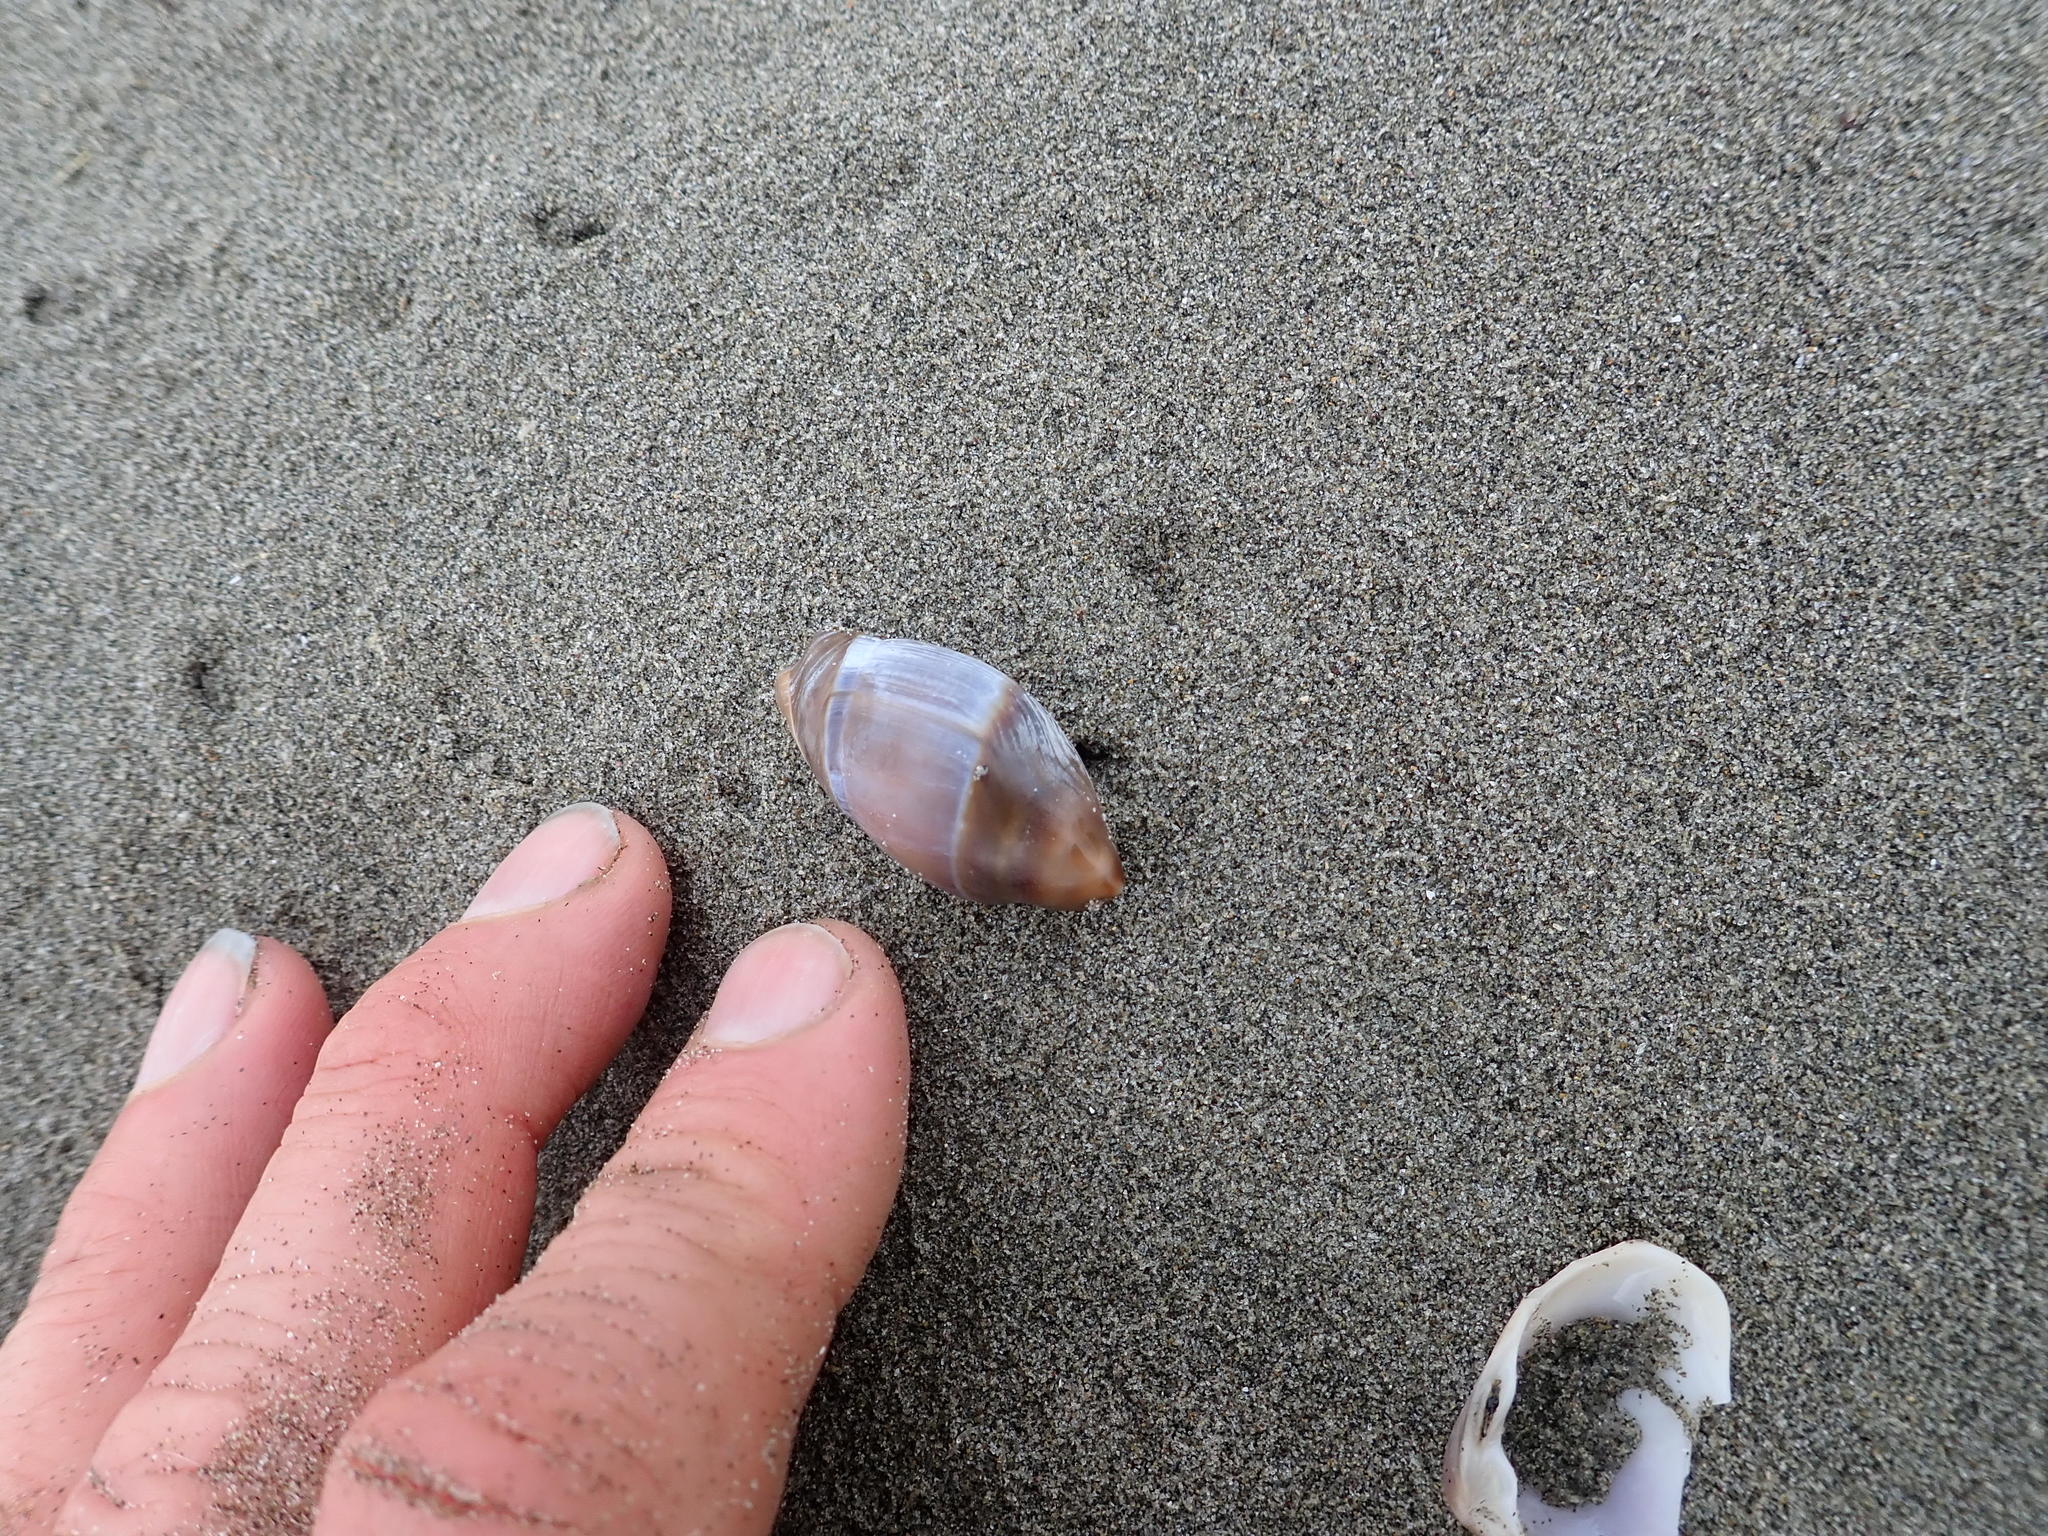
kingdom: Animalia
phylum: Mollusca
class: Gastropoda
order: Neogastropoda
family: Ancillariidae
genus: Amalda
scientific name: Amalda australis
